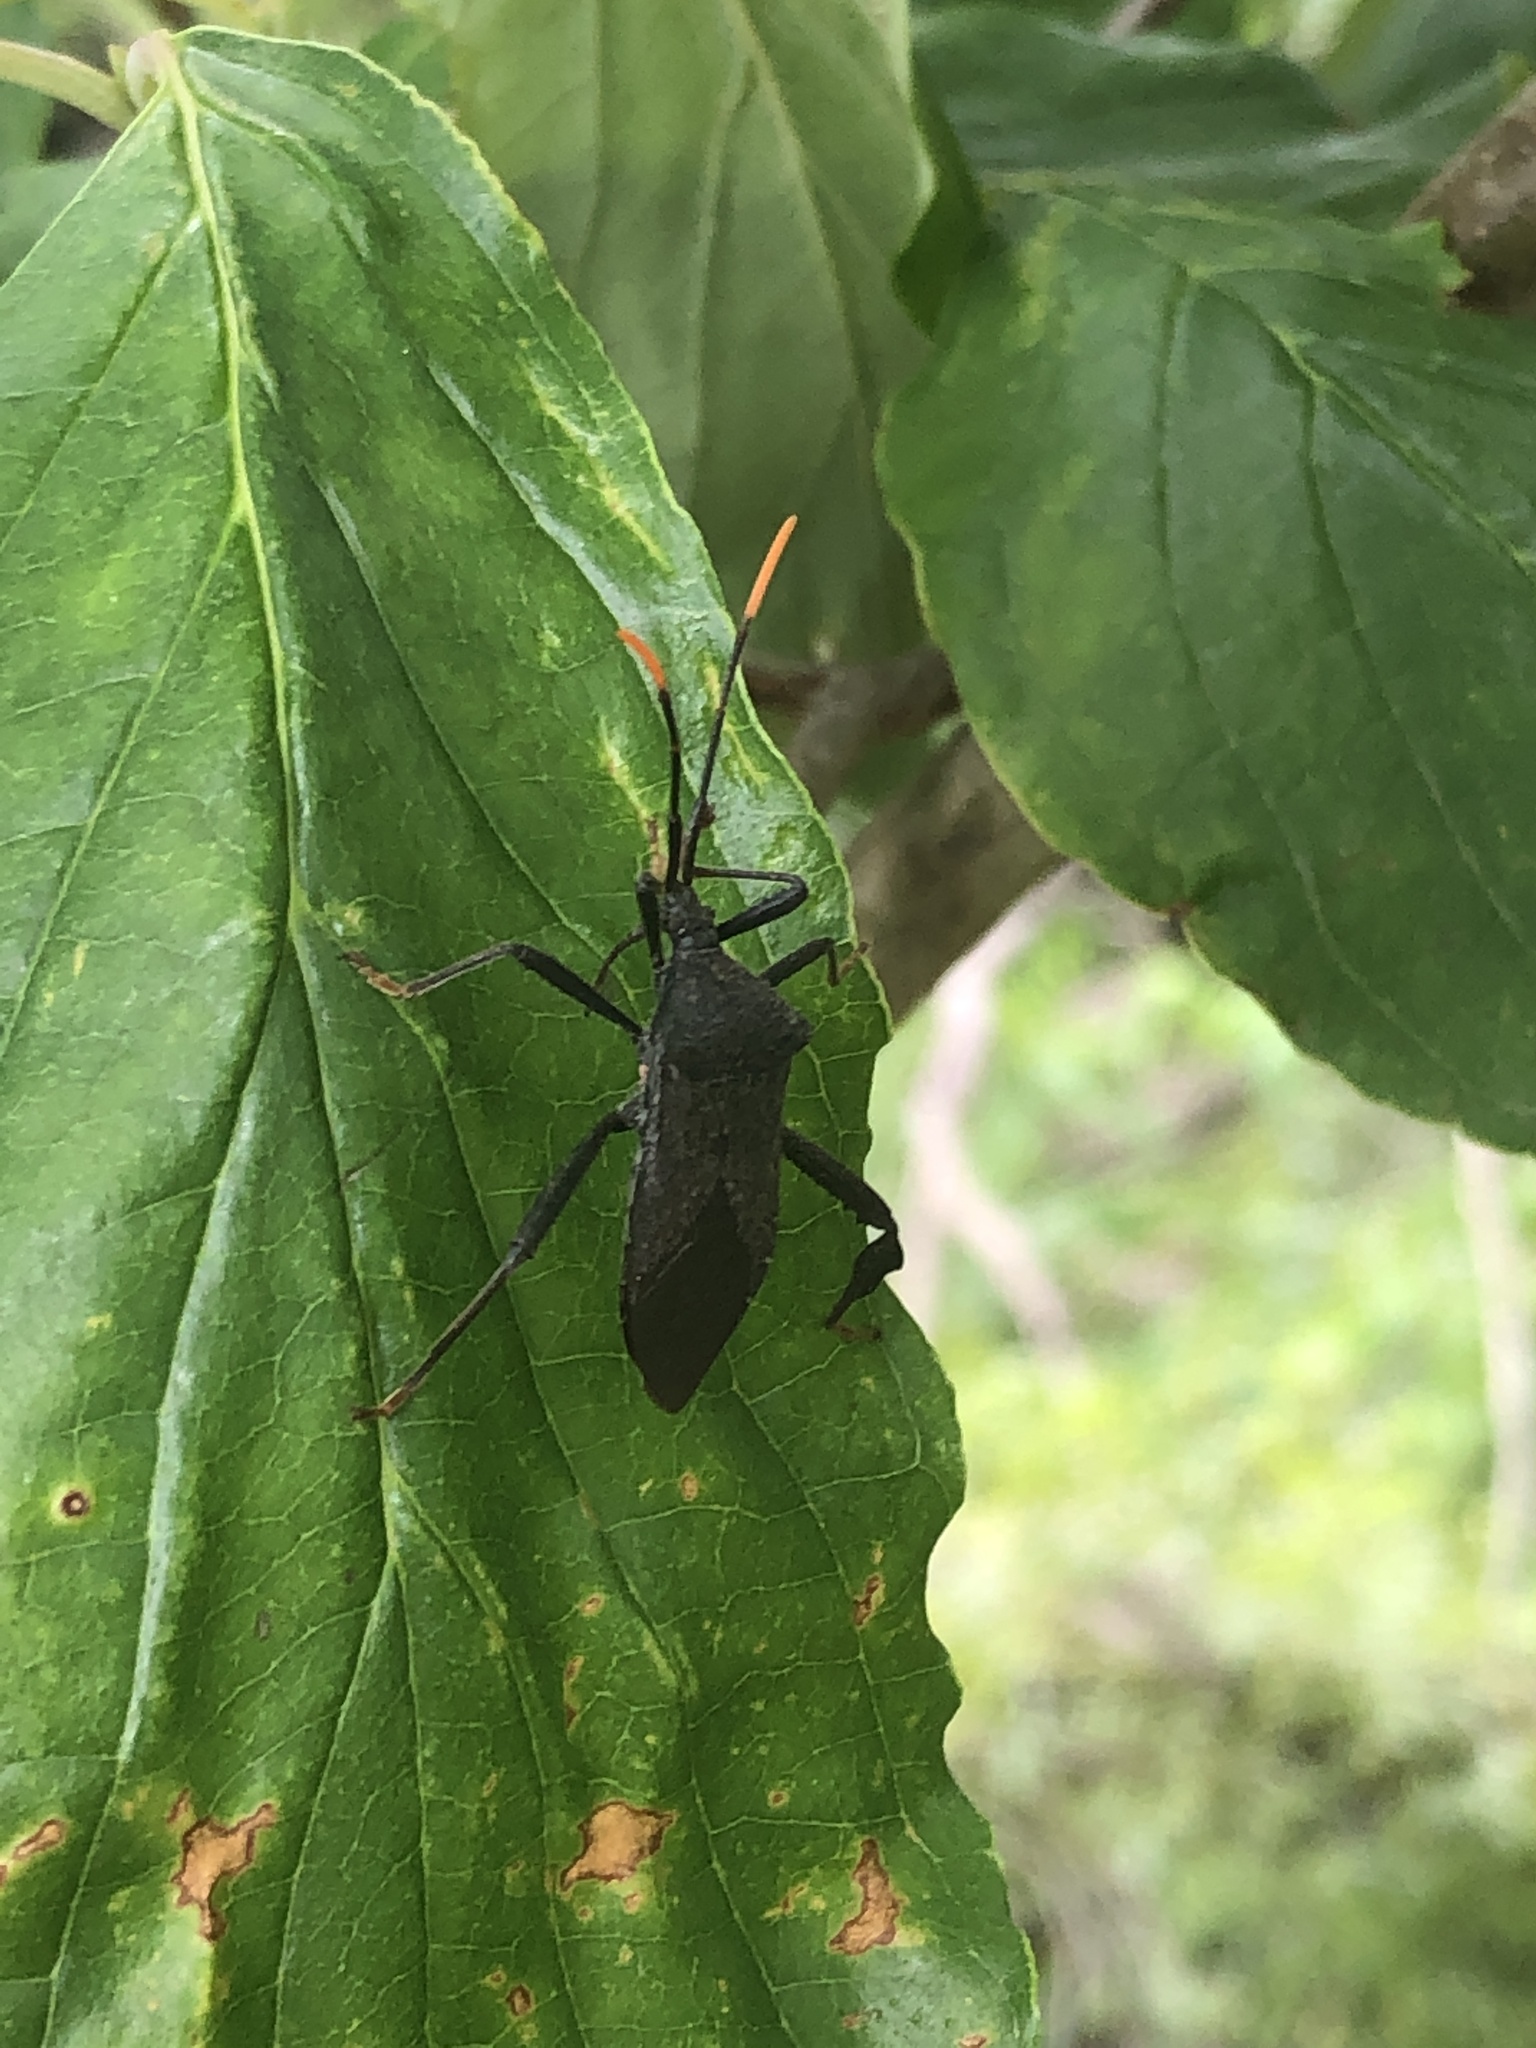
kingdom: Animalia
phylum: Arthropoda
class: Insecta
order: Hemiptera
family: Coreidae
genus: Acanthocephala
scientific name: Acanthocephala terminalis
